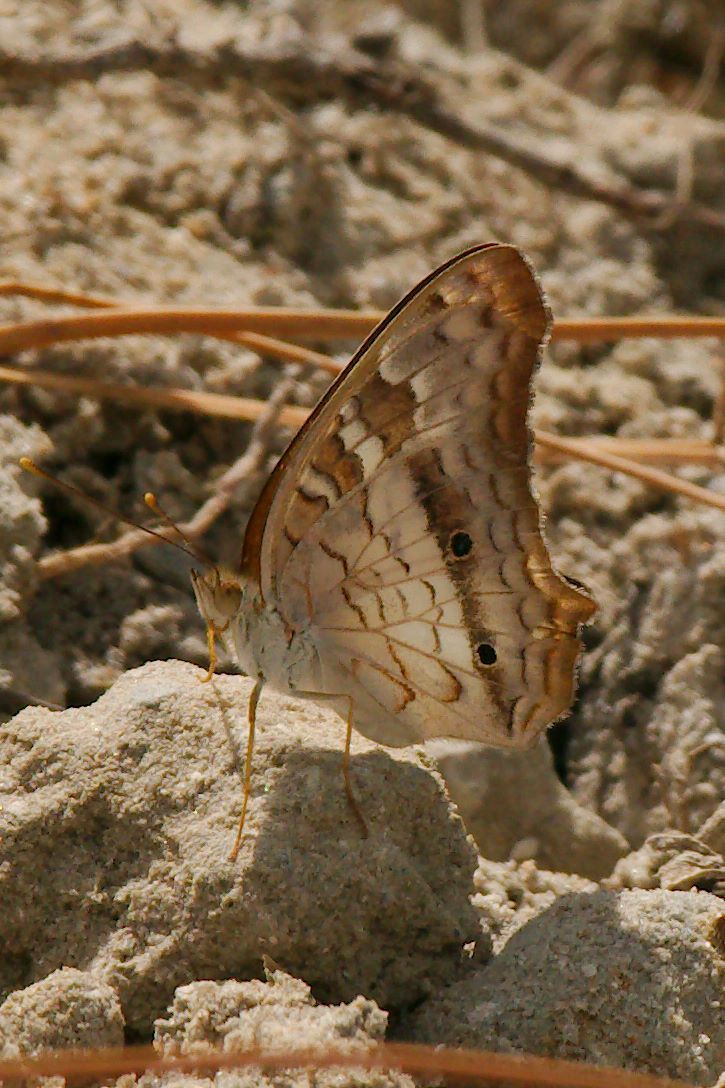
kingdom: Animalia
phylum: Arthropoda
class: Insecta
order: Lepidoptera
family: Nymphalidae
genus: Anartia
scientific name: Anartia jatrophae
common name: White peacock
